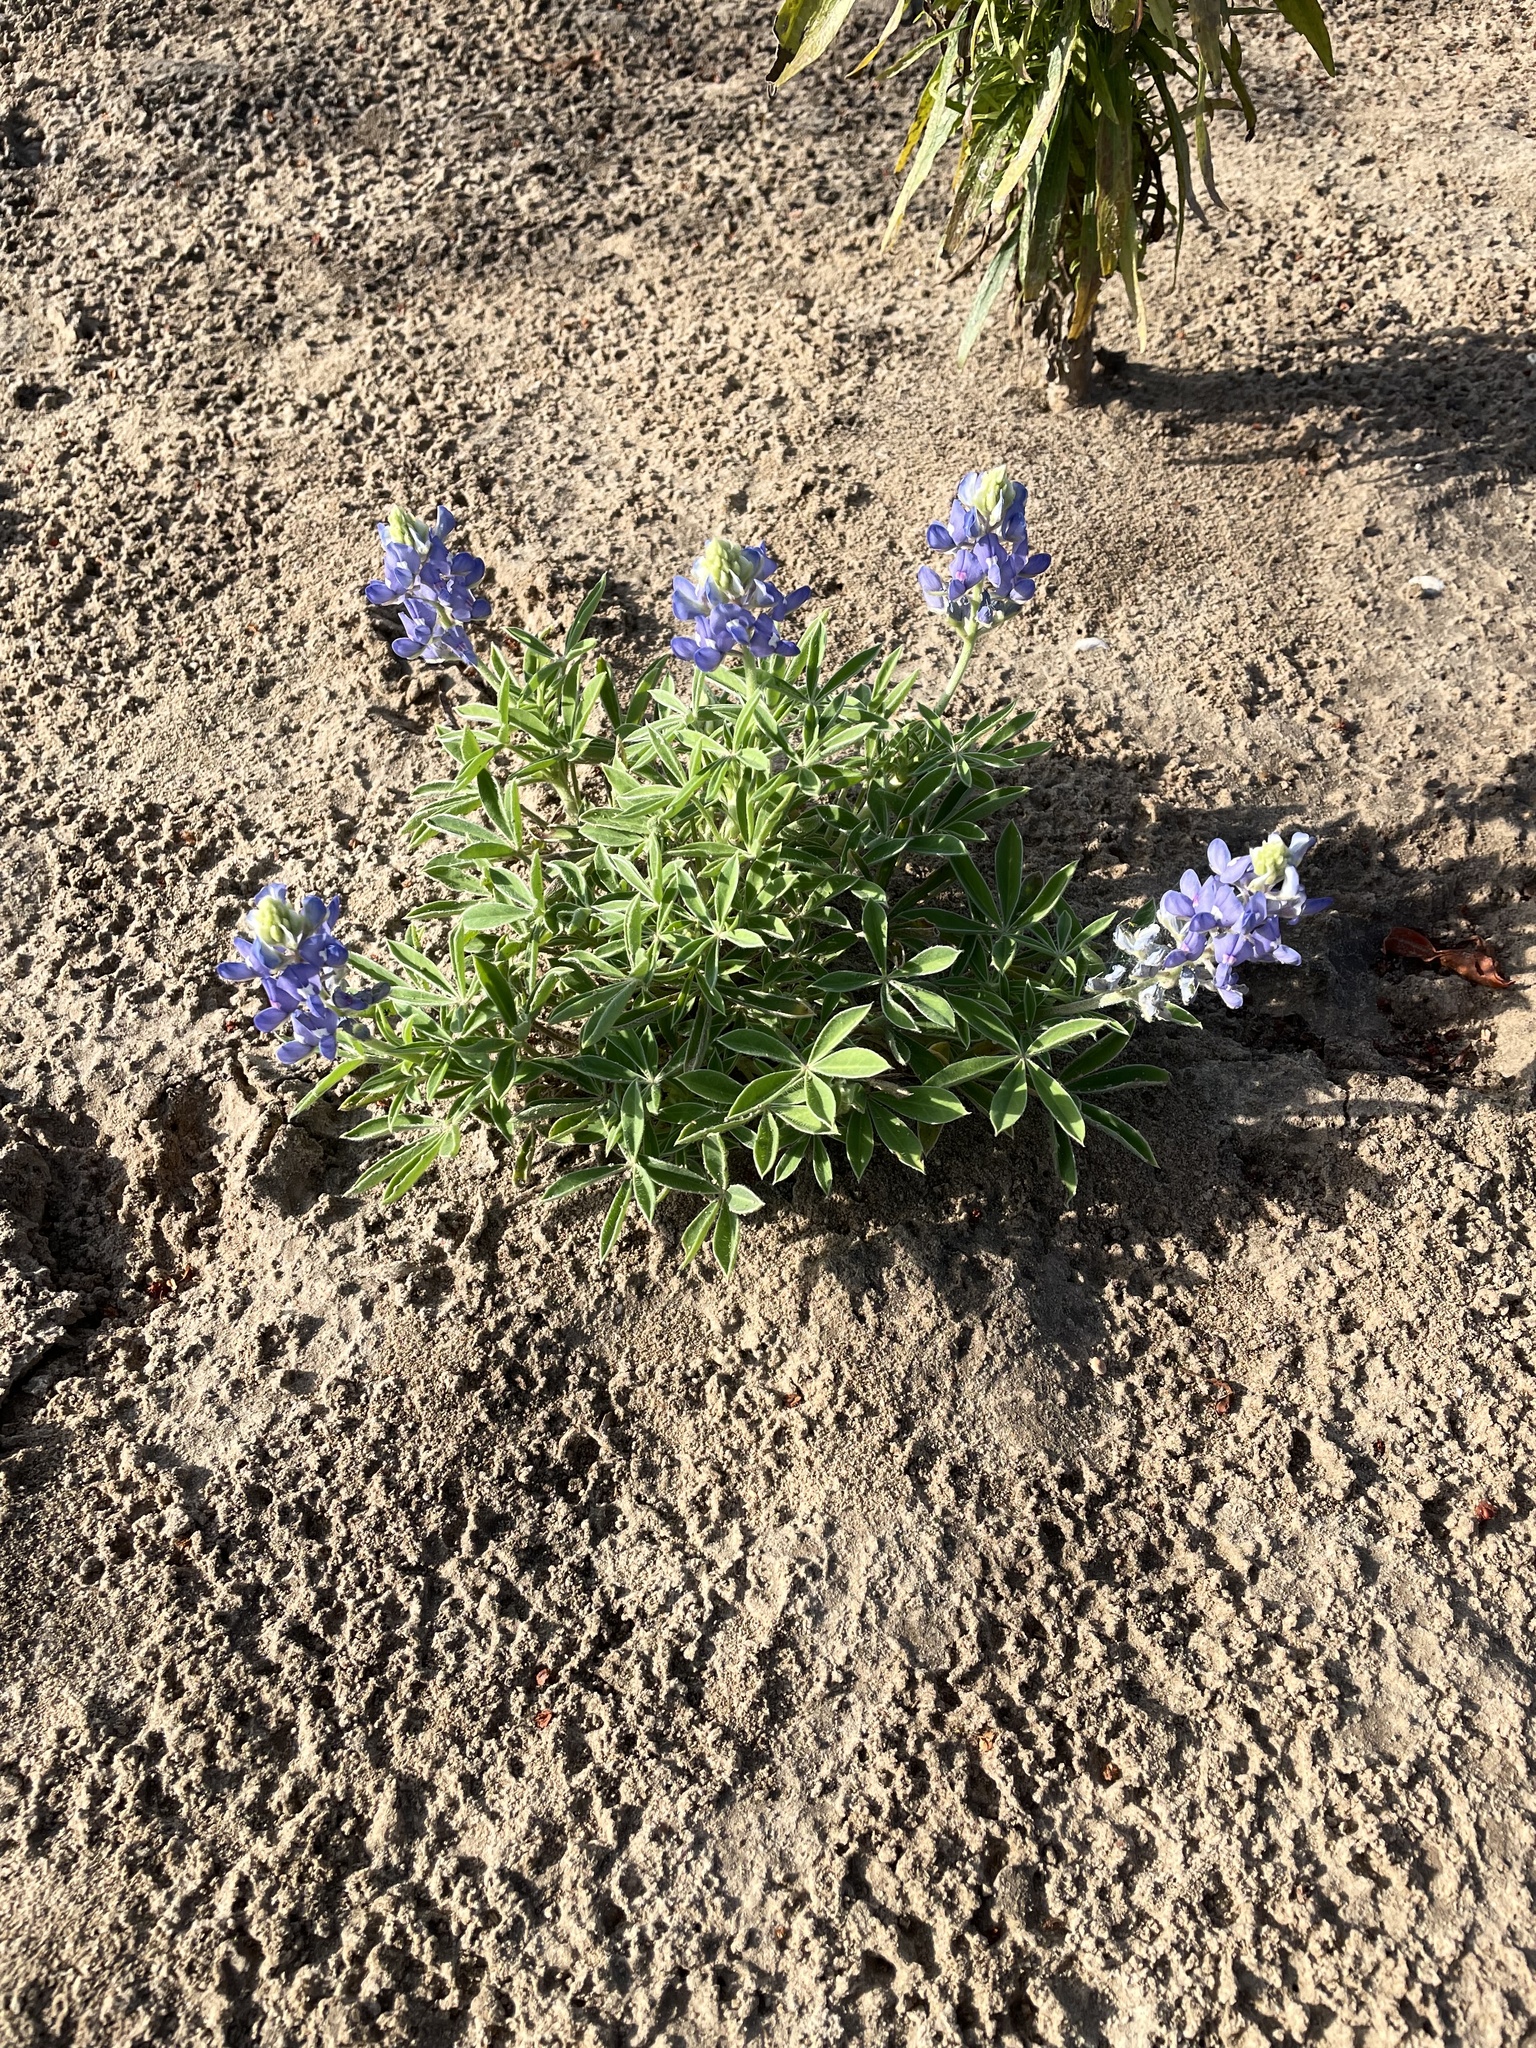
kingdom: Plantae
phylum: Tracheophyta
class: Magnoliopsida
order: Fabales
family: Fabaceae
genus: Lupinus
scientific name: Lupinus texensis
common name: Texas bluebonnet
